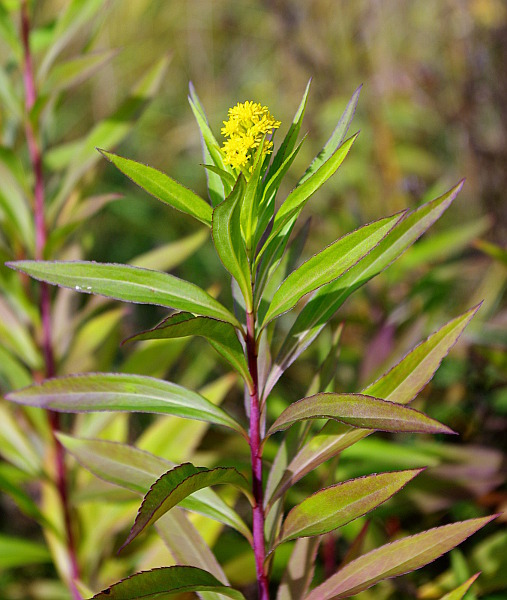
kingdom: Plantae
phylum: Tracheophyta
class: Magnoliopsida
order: Asterales
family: Asteraceae
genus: Solidago
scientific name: Solidago gigantea
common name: Giant goldenrod
